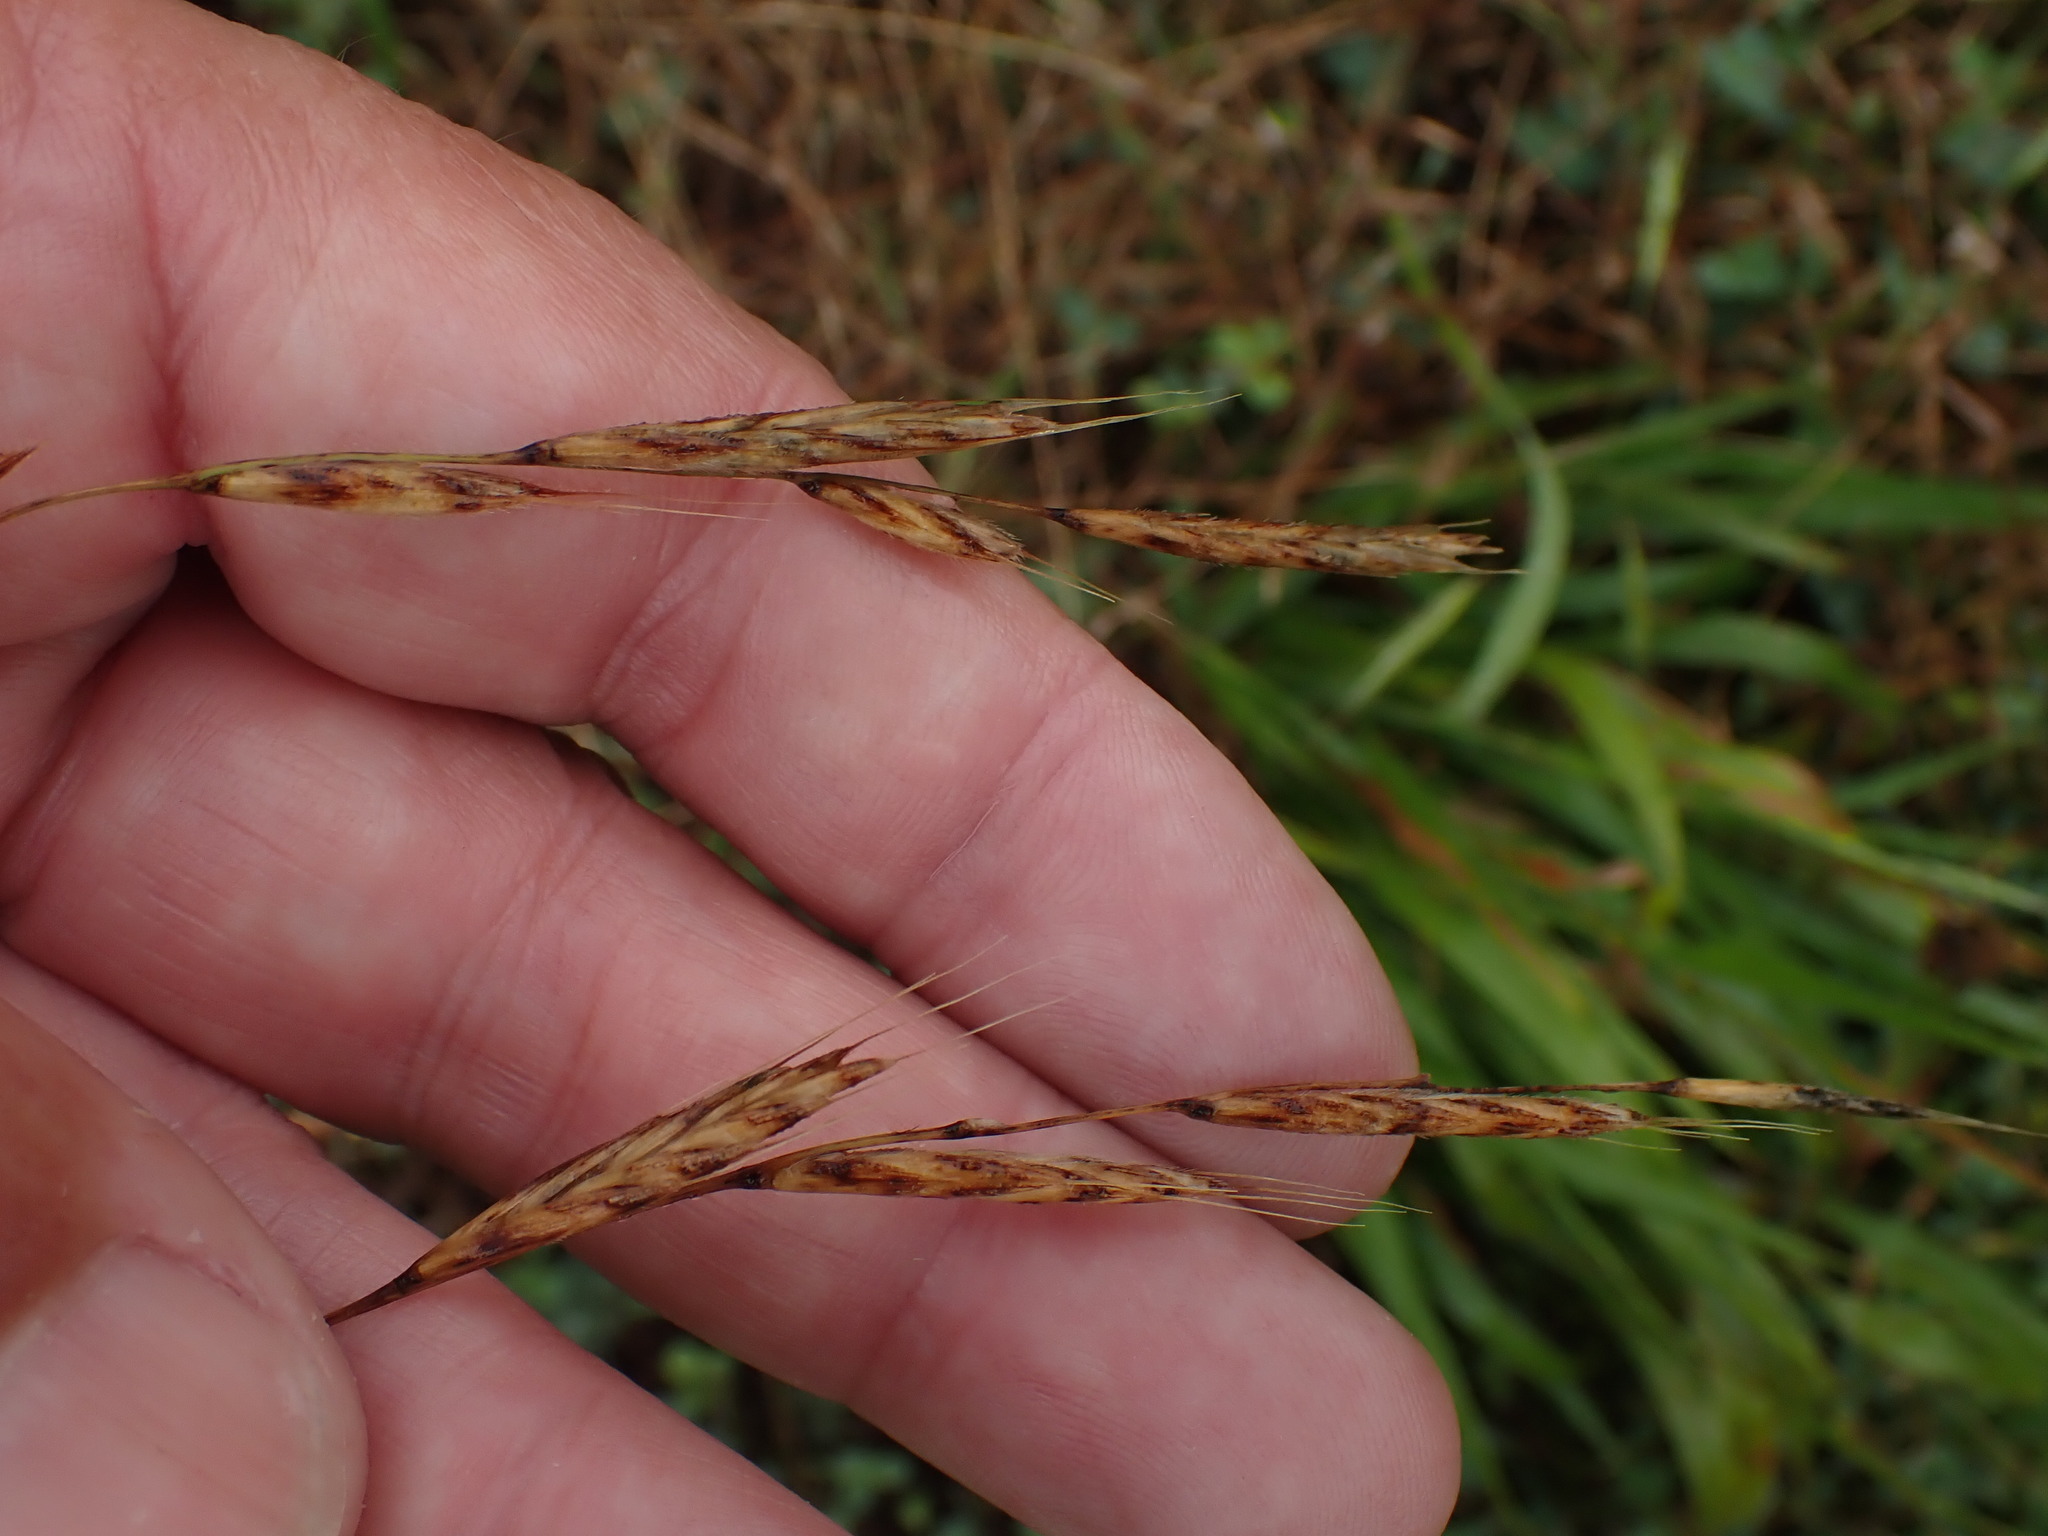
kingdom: Plantae
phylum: Tracheophyta
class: Liliopsida
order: Poales
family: Poaceae
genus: Brachypodium
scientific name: Brachypodium sylvaticum
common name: False-brome
